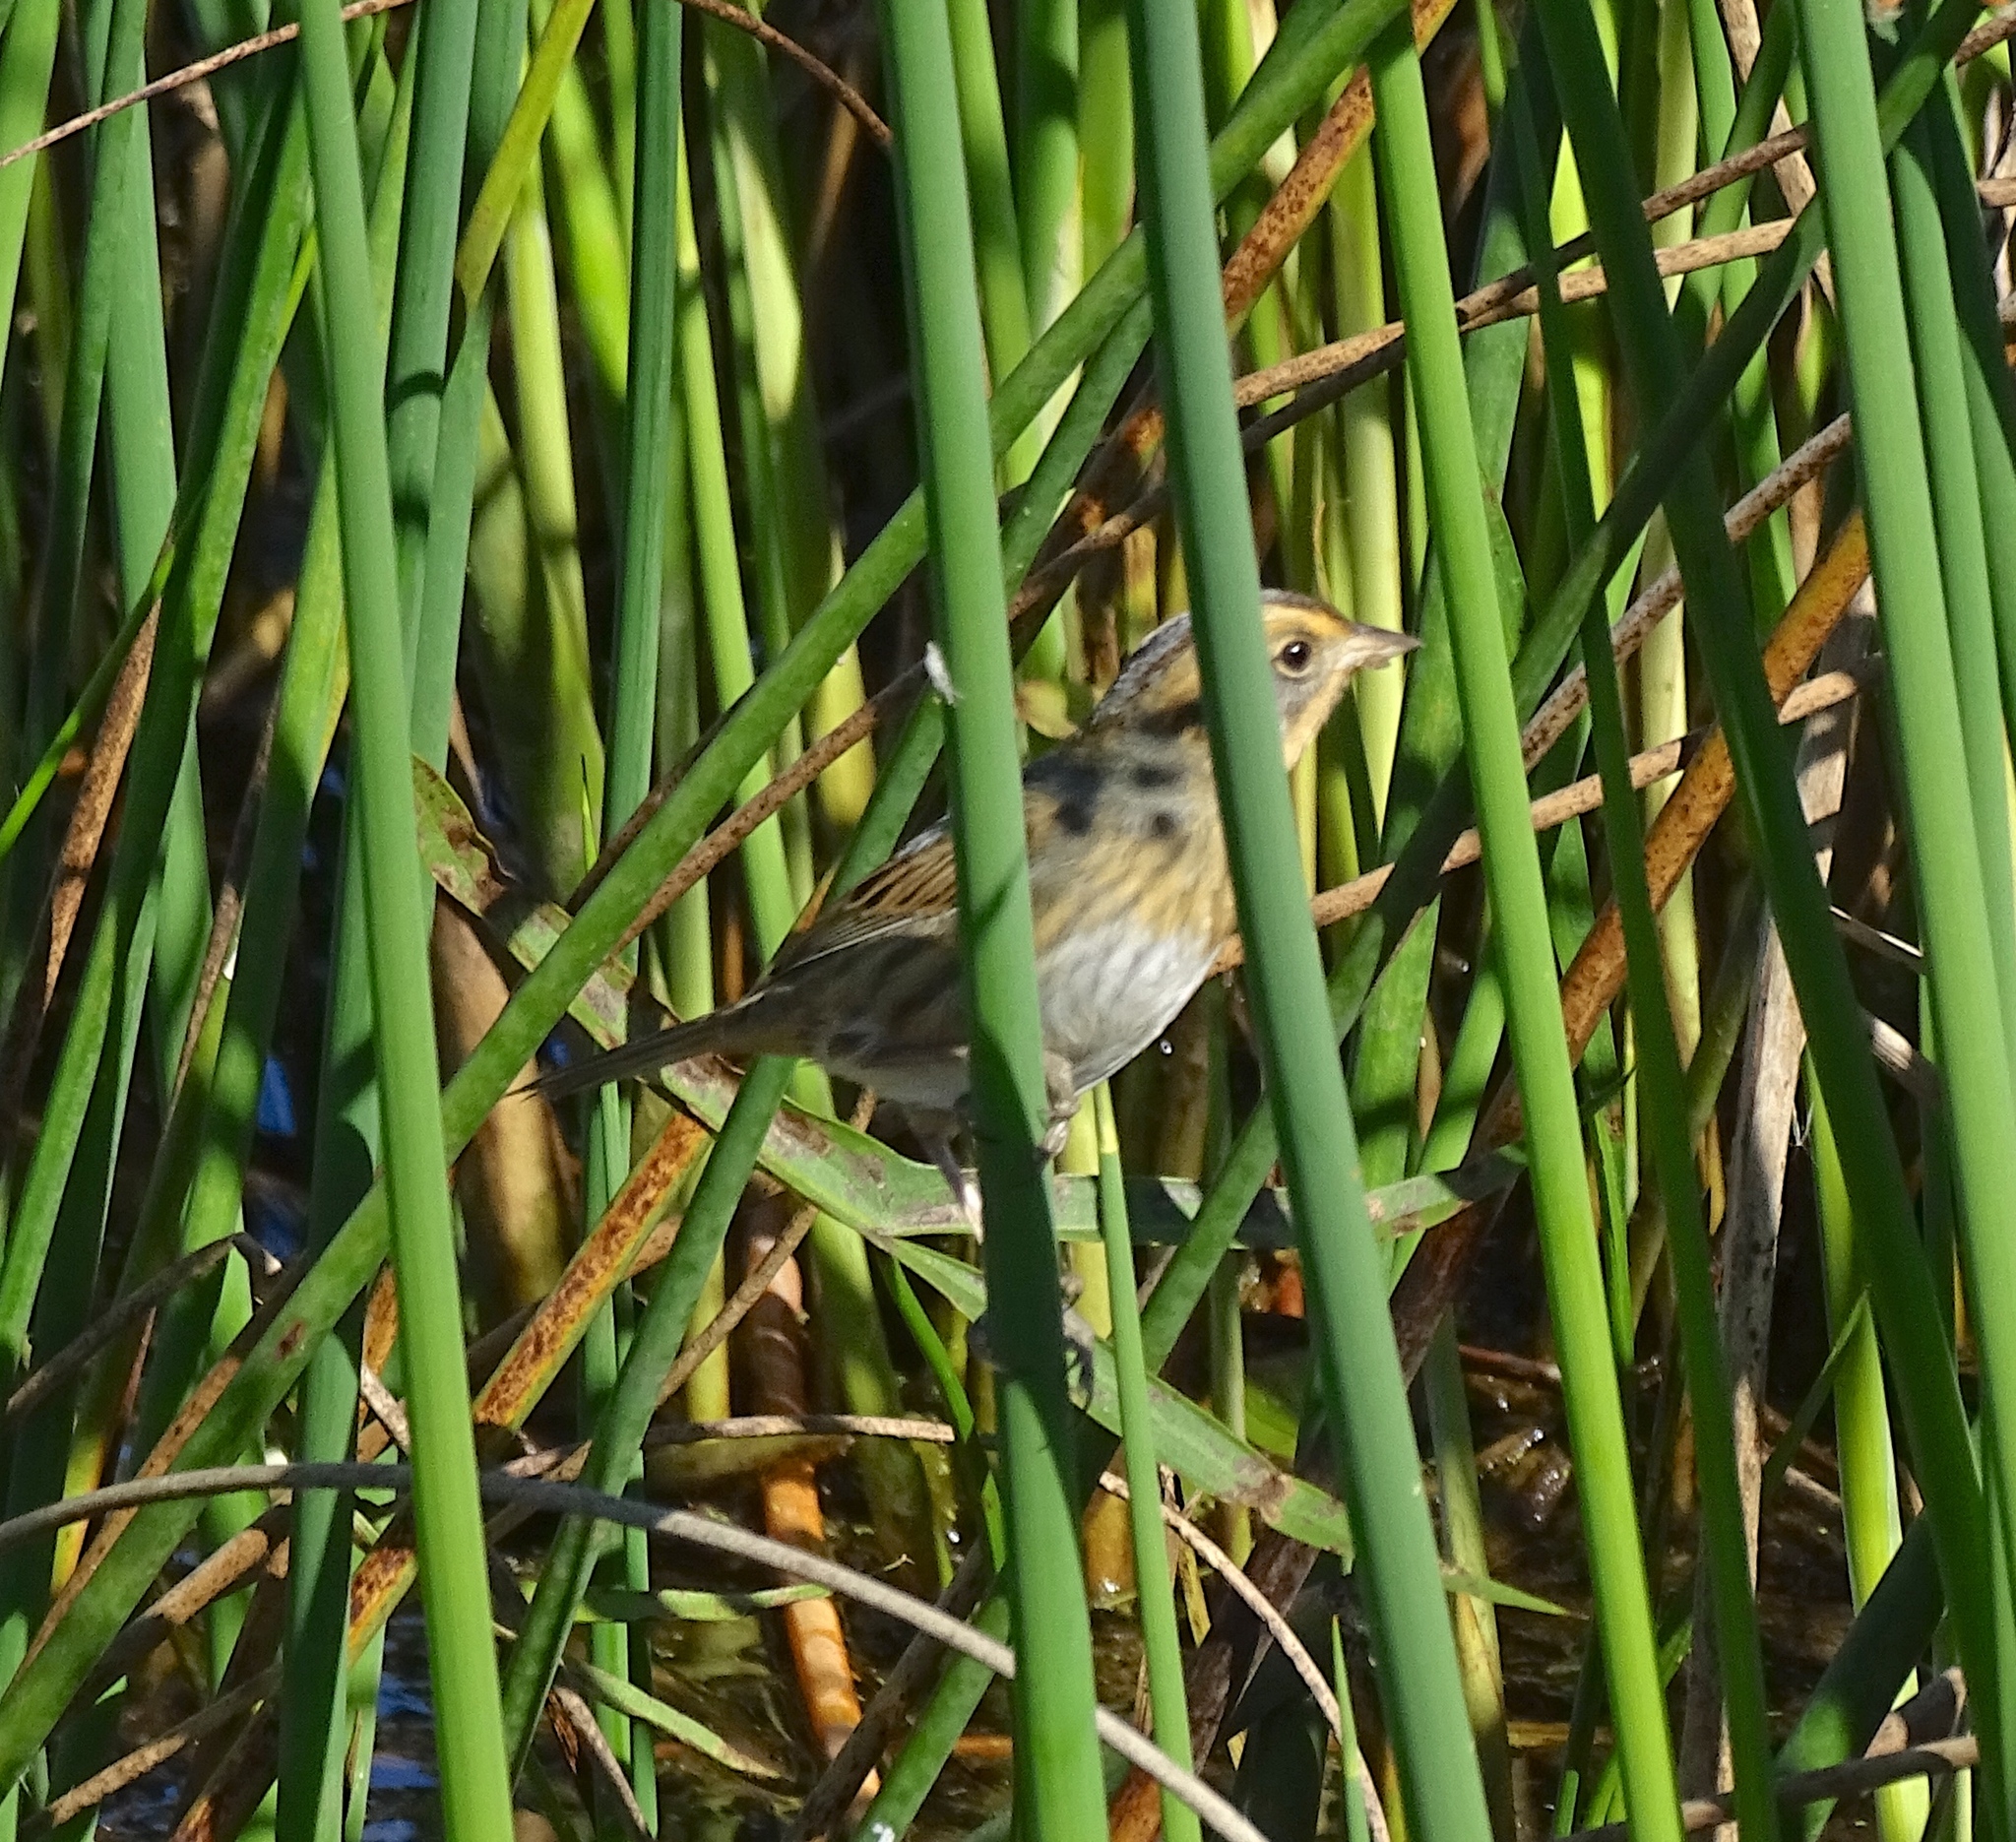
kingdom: Animalia
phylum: Chordata
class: Aves
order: Passeriformes
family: Passerellidae
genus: Ammospiza
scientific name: Ammospiza nelsoni
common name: Nelson's sparrow
